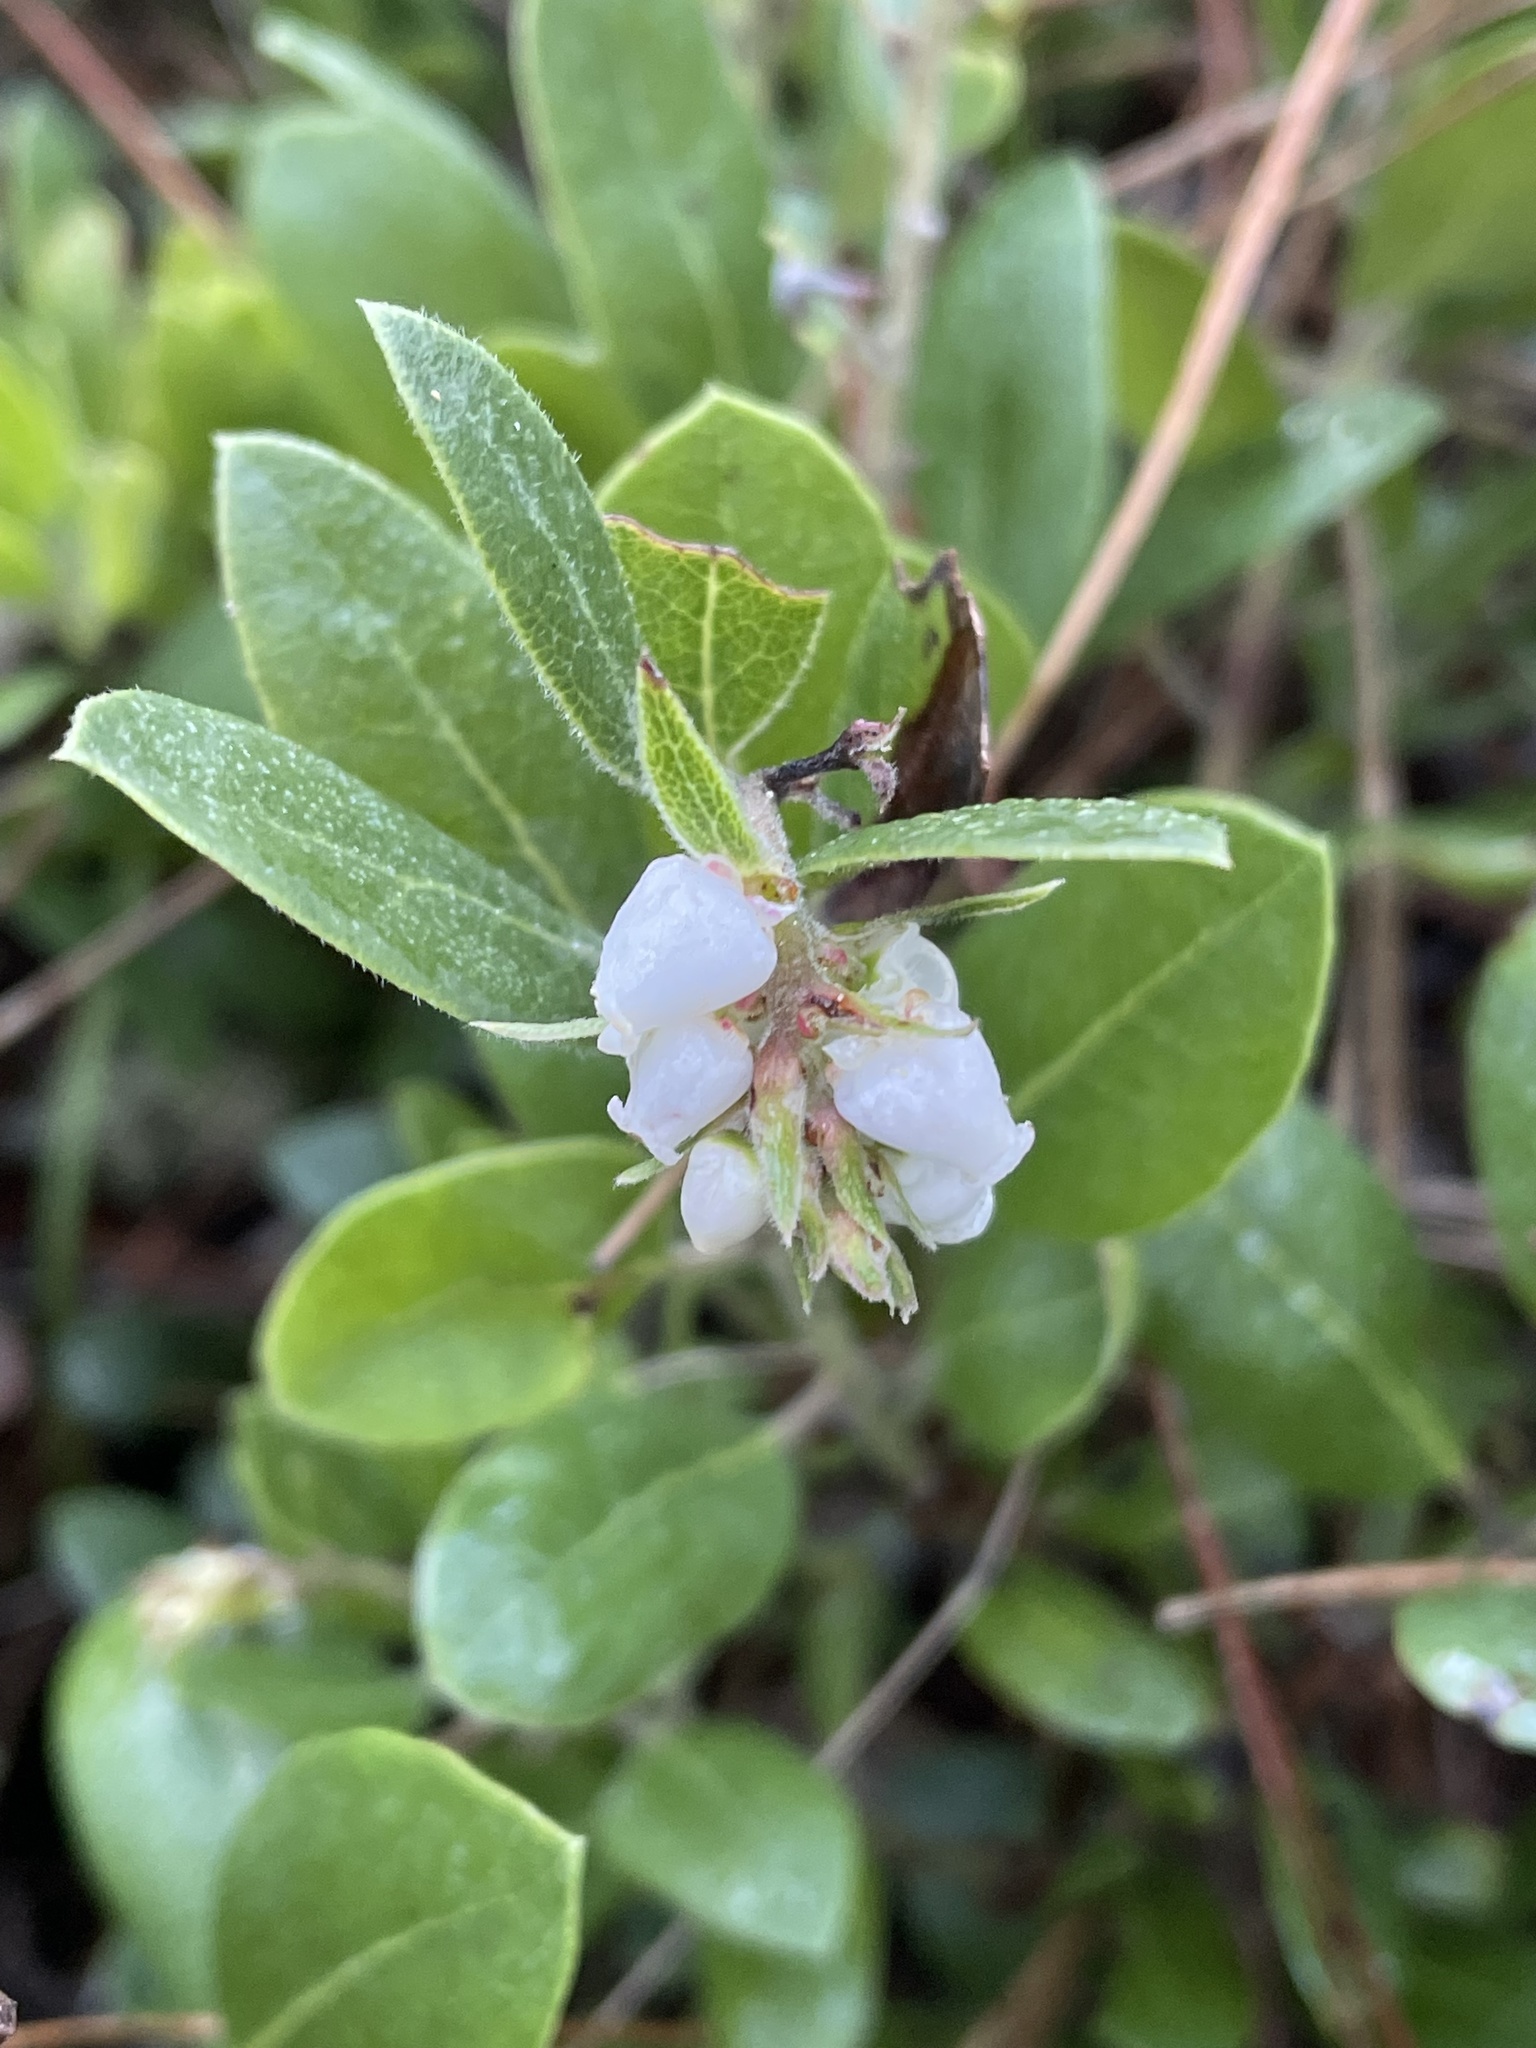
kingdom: Plantae
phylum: Tracheophyta
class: Magnoliopsida
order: Ericales
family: Ericaceae
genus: Arctostaphylos
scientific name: Arctostaphylos tomentosa
